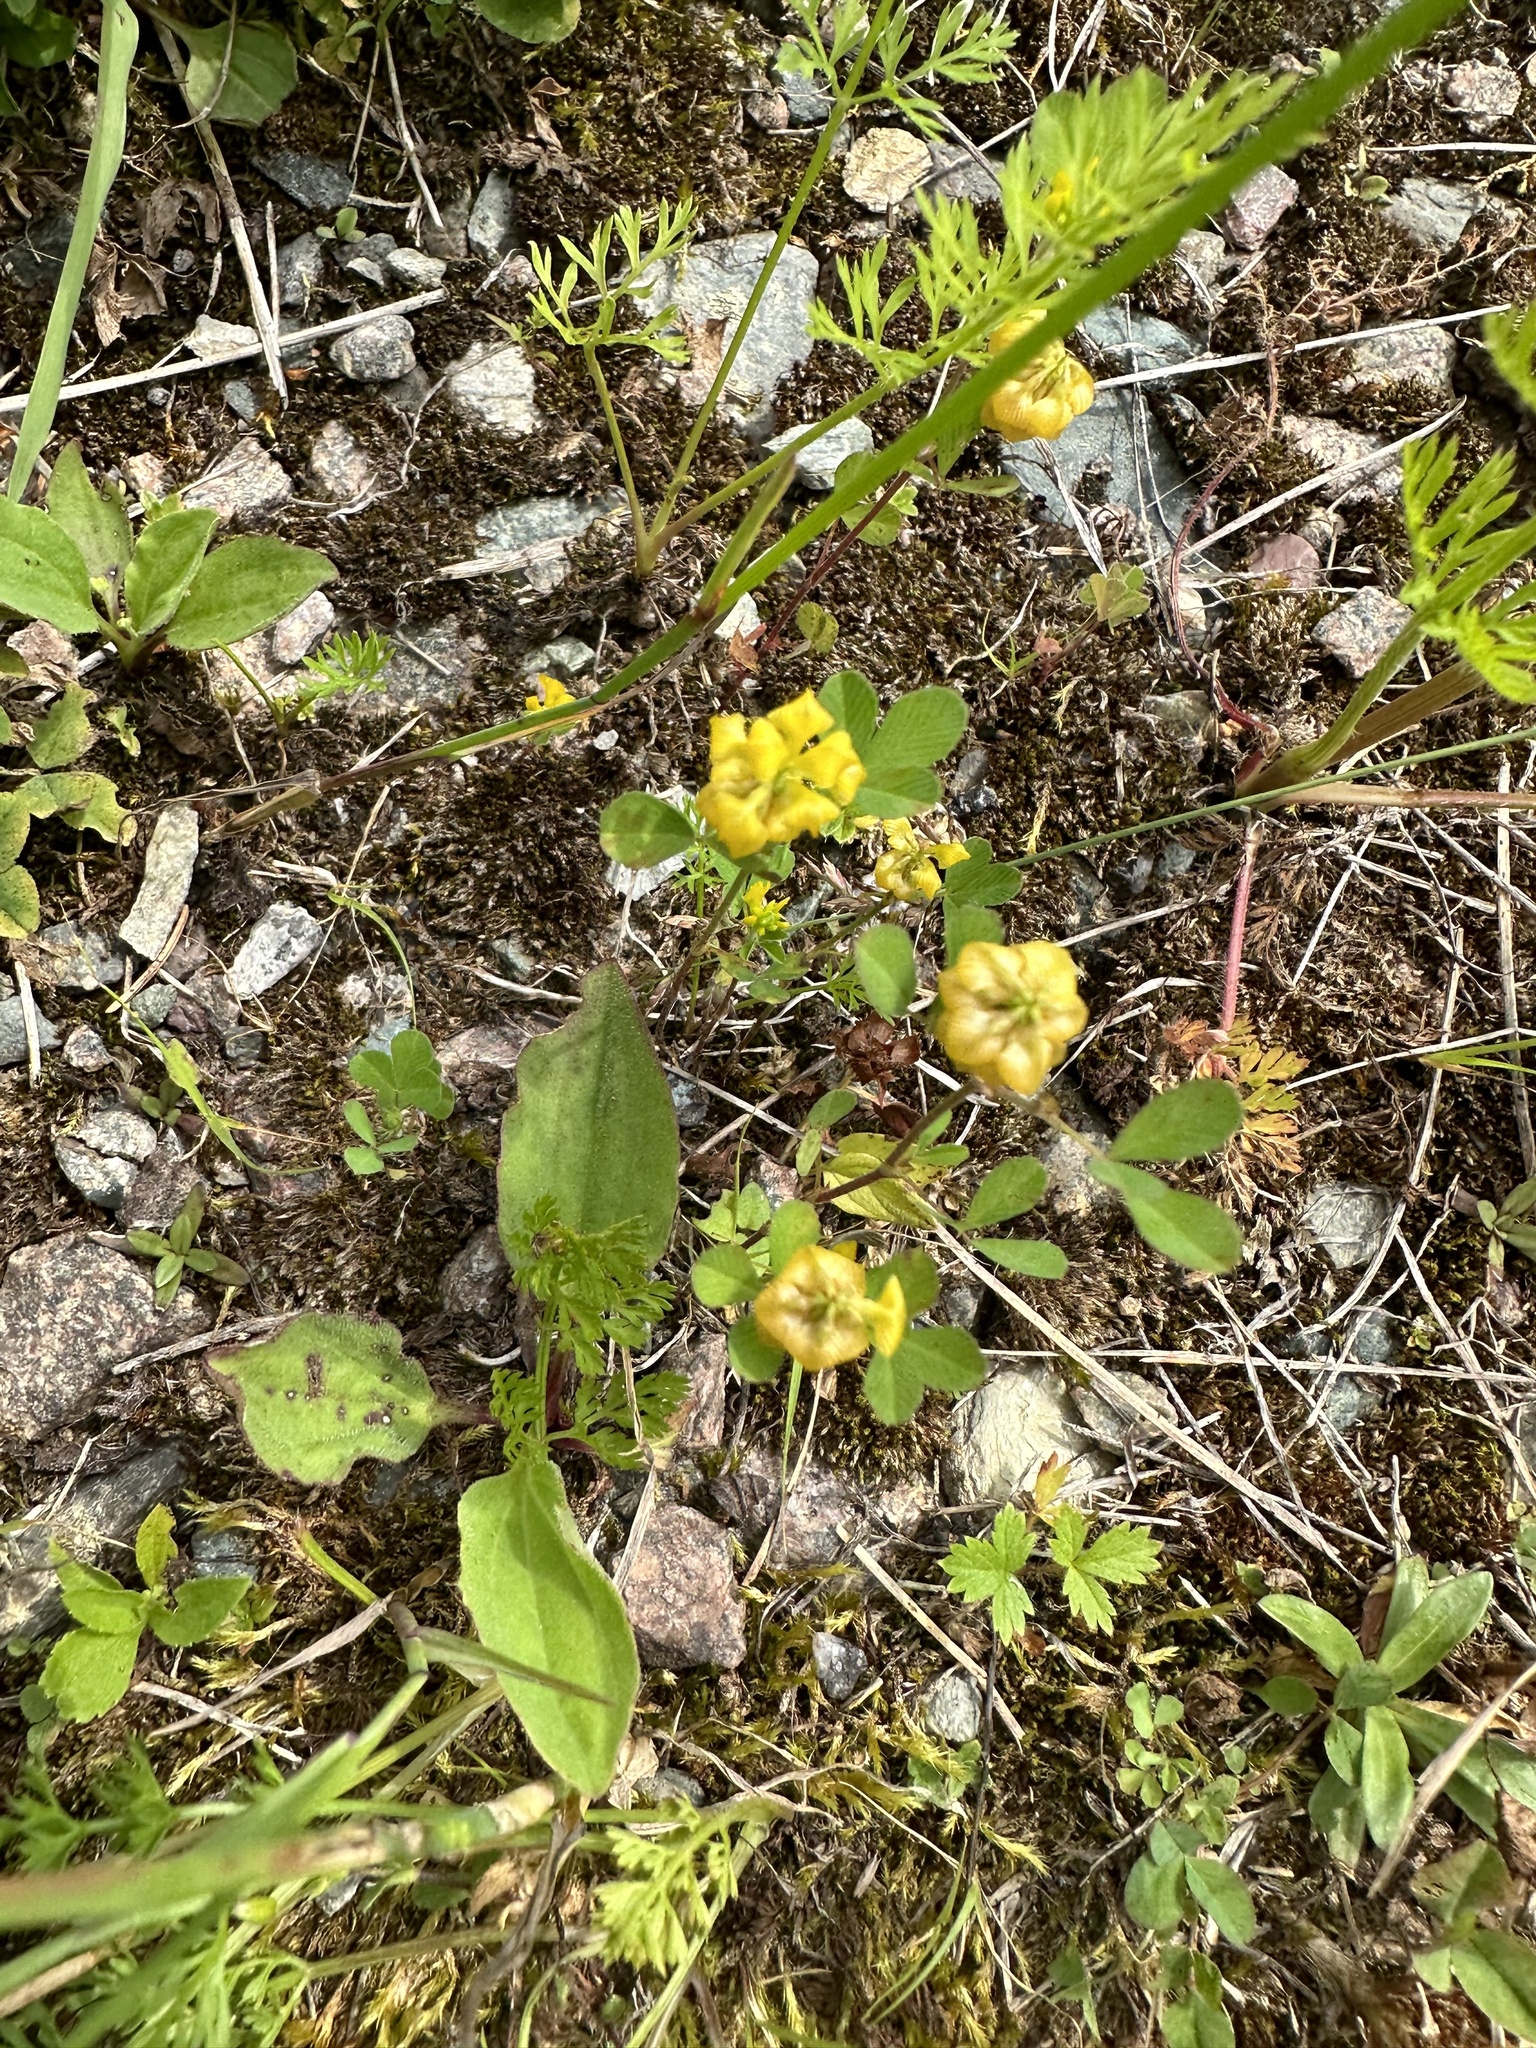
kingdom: Plantae
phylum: Tracheophyta
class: Magnoliopsida
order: Fabales
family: Fabaceae
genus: Trifolium
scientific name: Trifolium campestre
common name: Field clover
